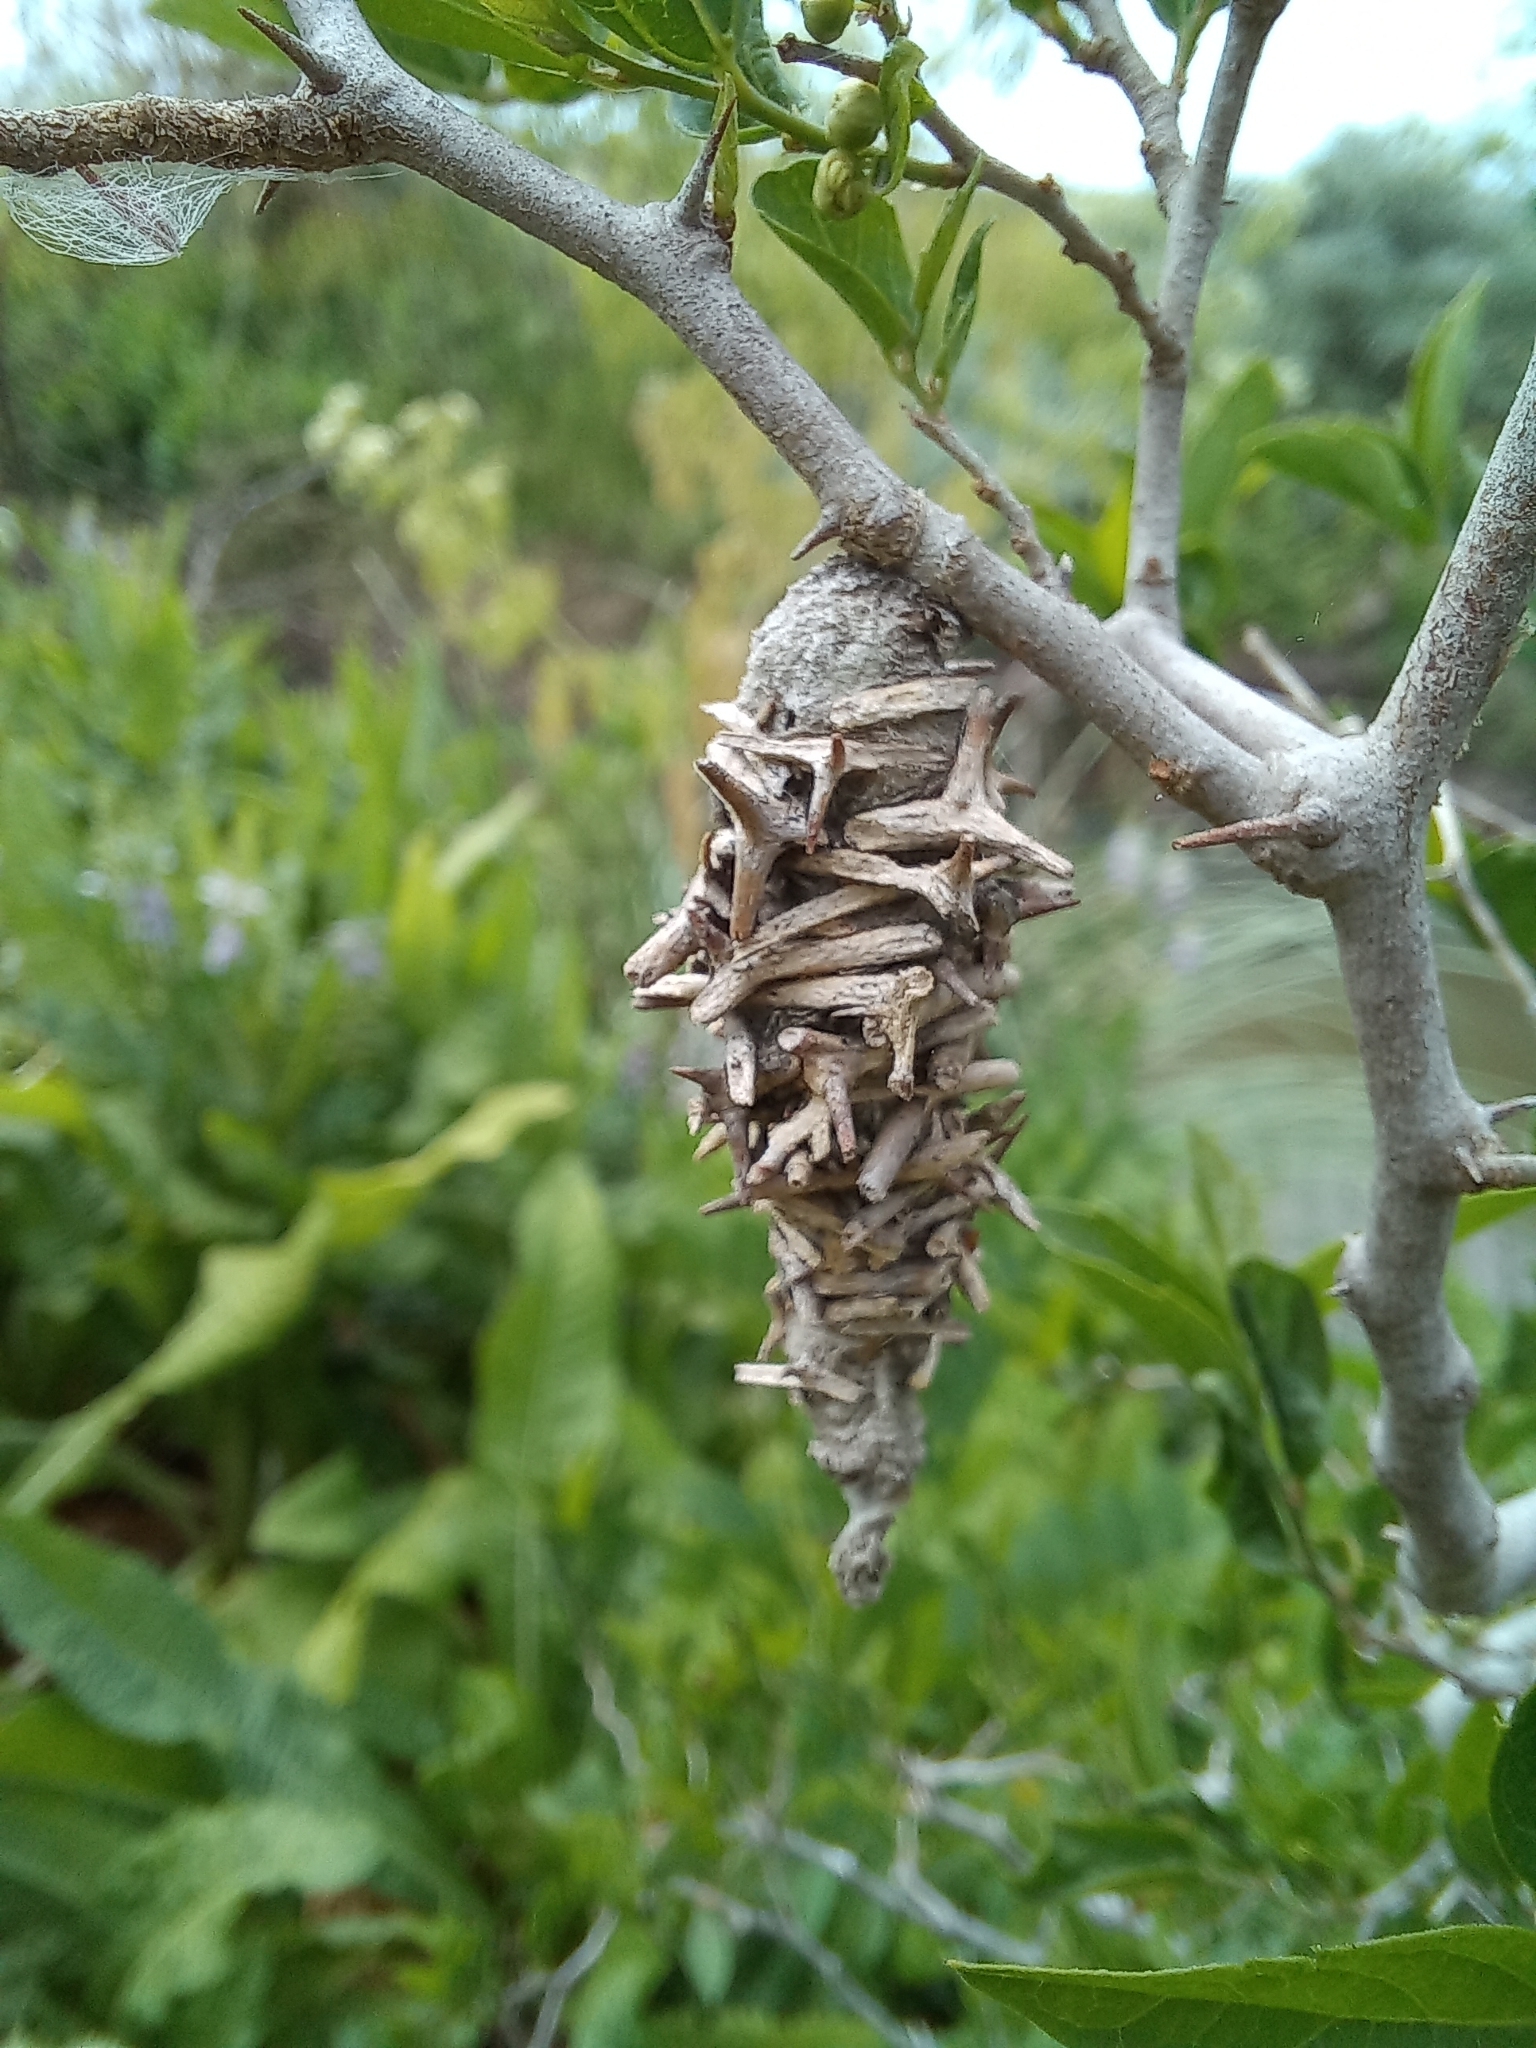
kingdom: Animalia
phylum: Arthropoda
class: Insecta
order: Lepidoptera
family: Psychidae
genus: Oiketicus
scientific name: Oiketicus
